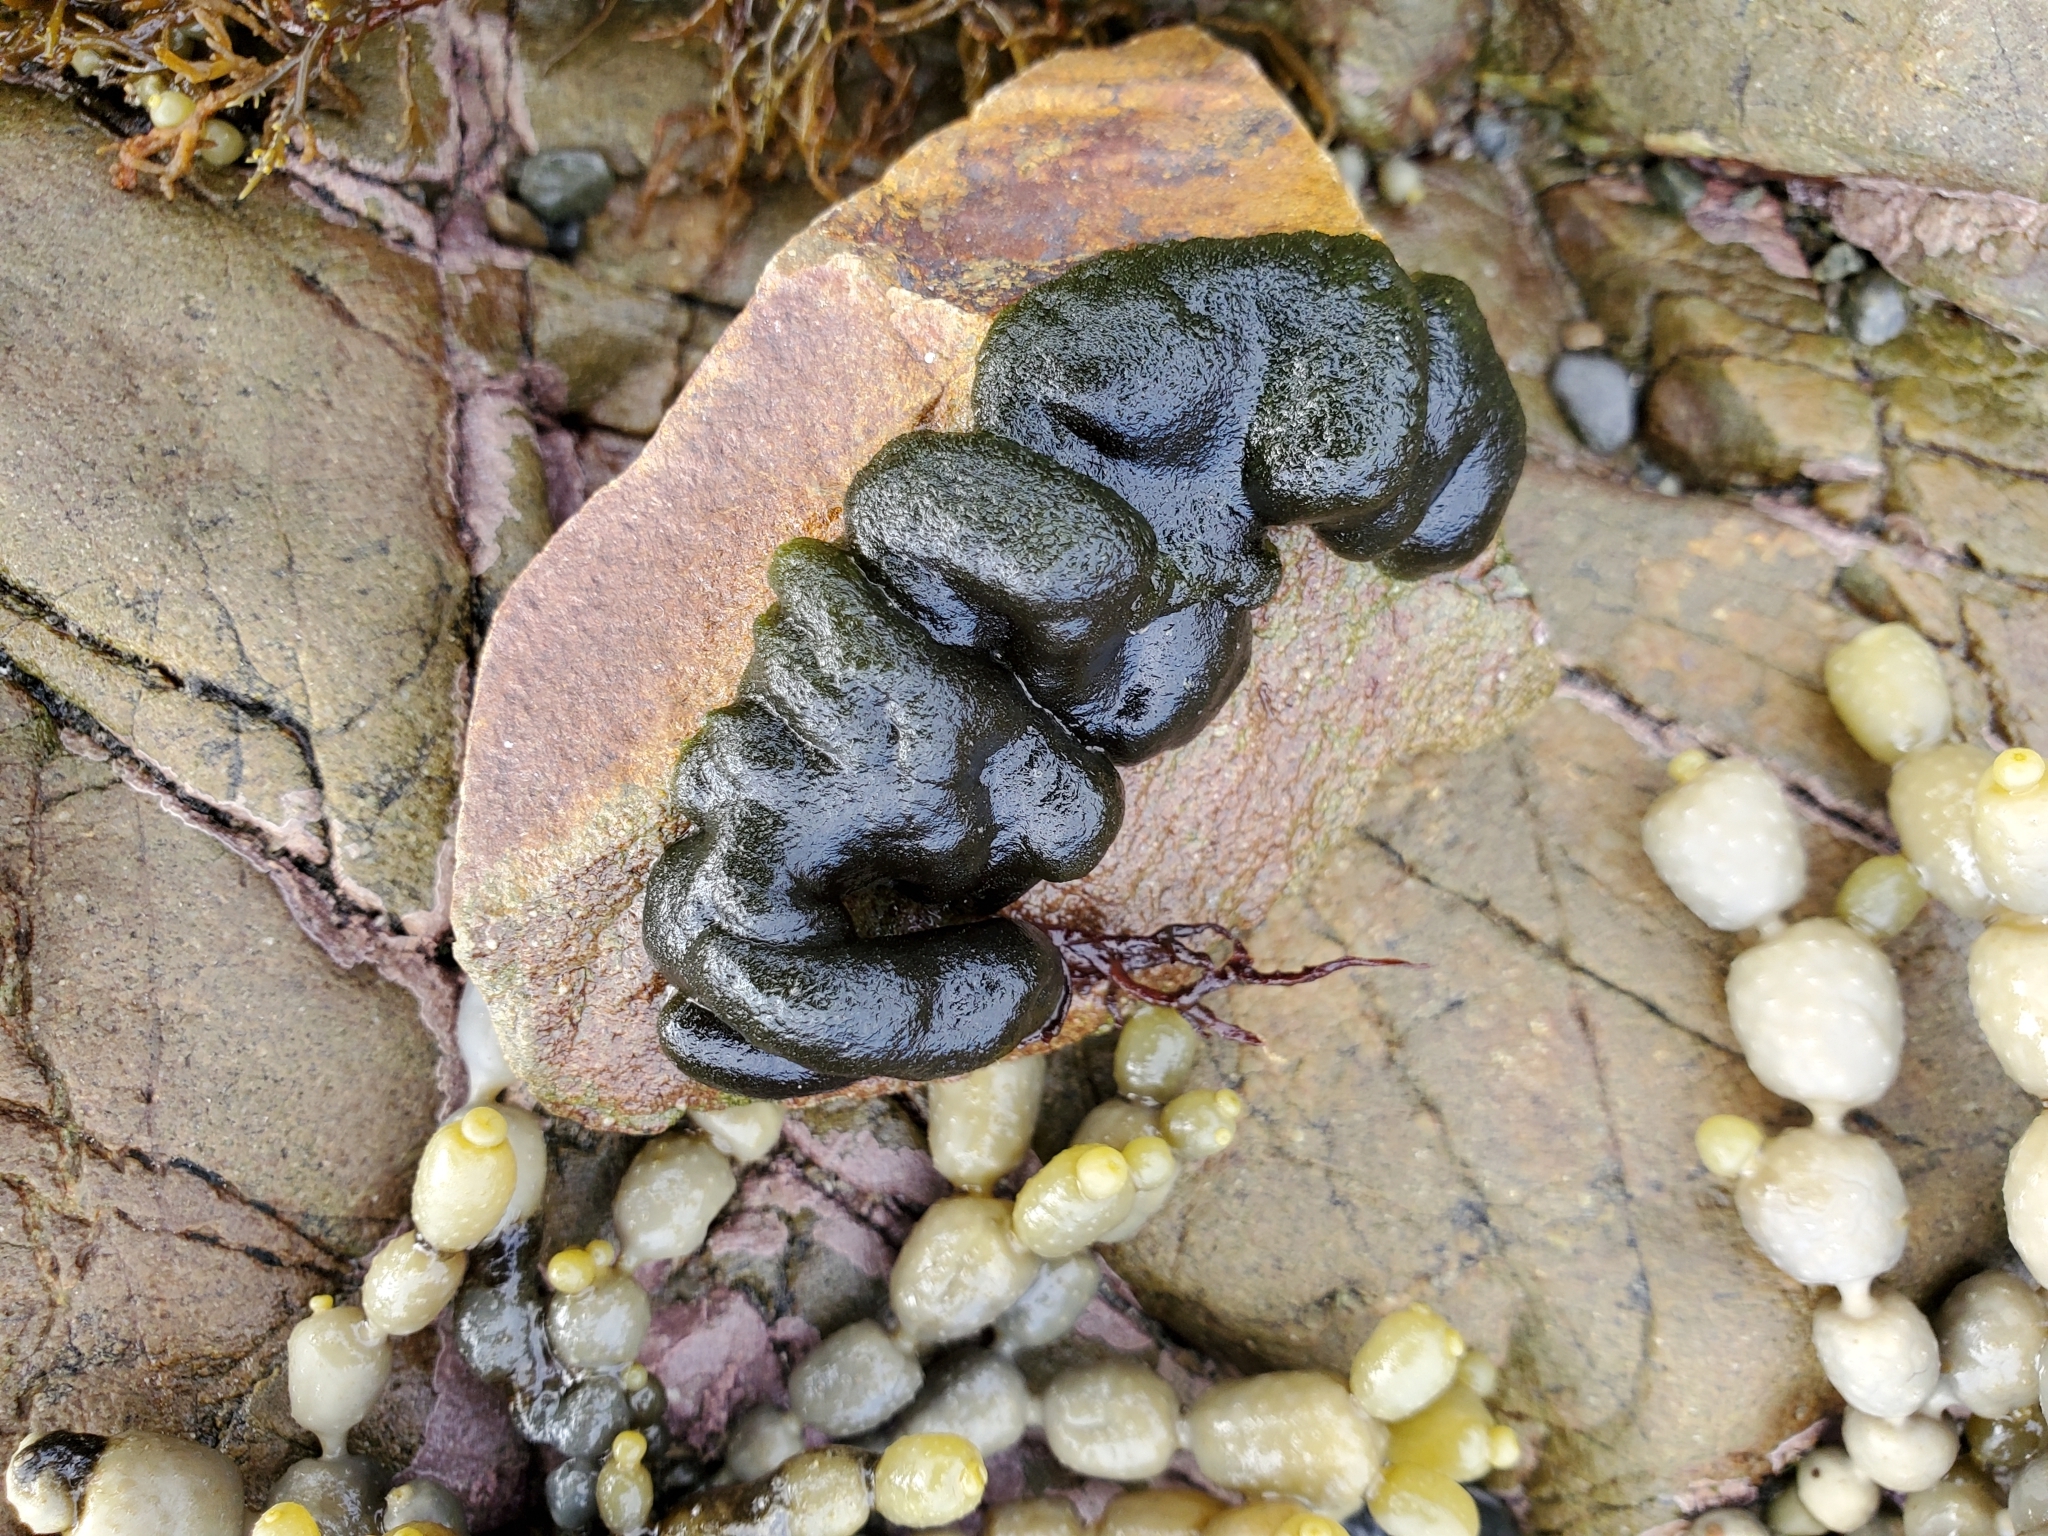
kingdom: Plantae
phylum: Chlorophyta
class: Ulvophyceae
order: Bryopsidales
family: Codiaceae
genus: Codium
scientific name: Codium convolutum
